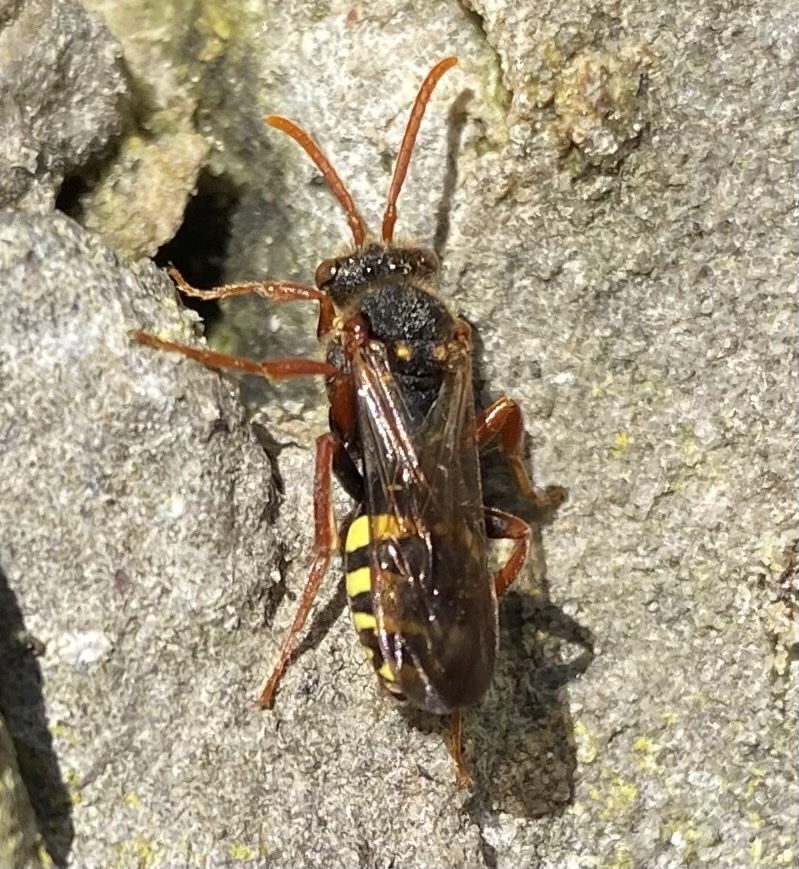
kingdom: Animalia
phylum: Arthropoda
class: Insecta
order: Hymenoptera
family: Apidae
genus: Nomada
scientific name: Nomada marshamella
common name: Marsham's nomad bee
